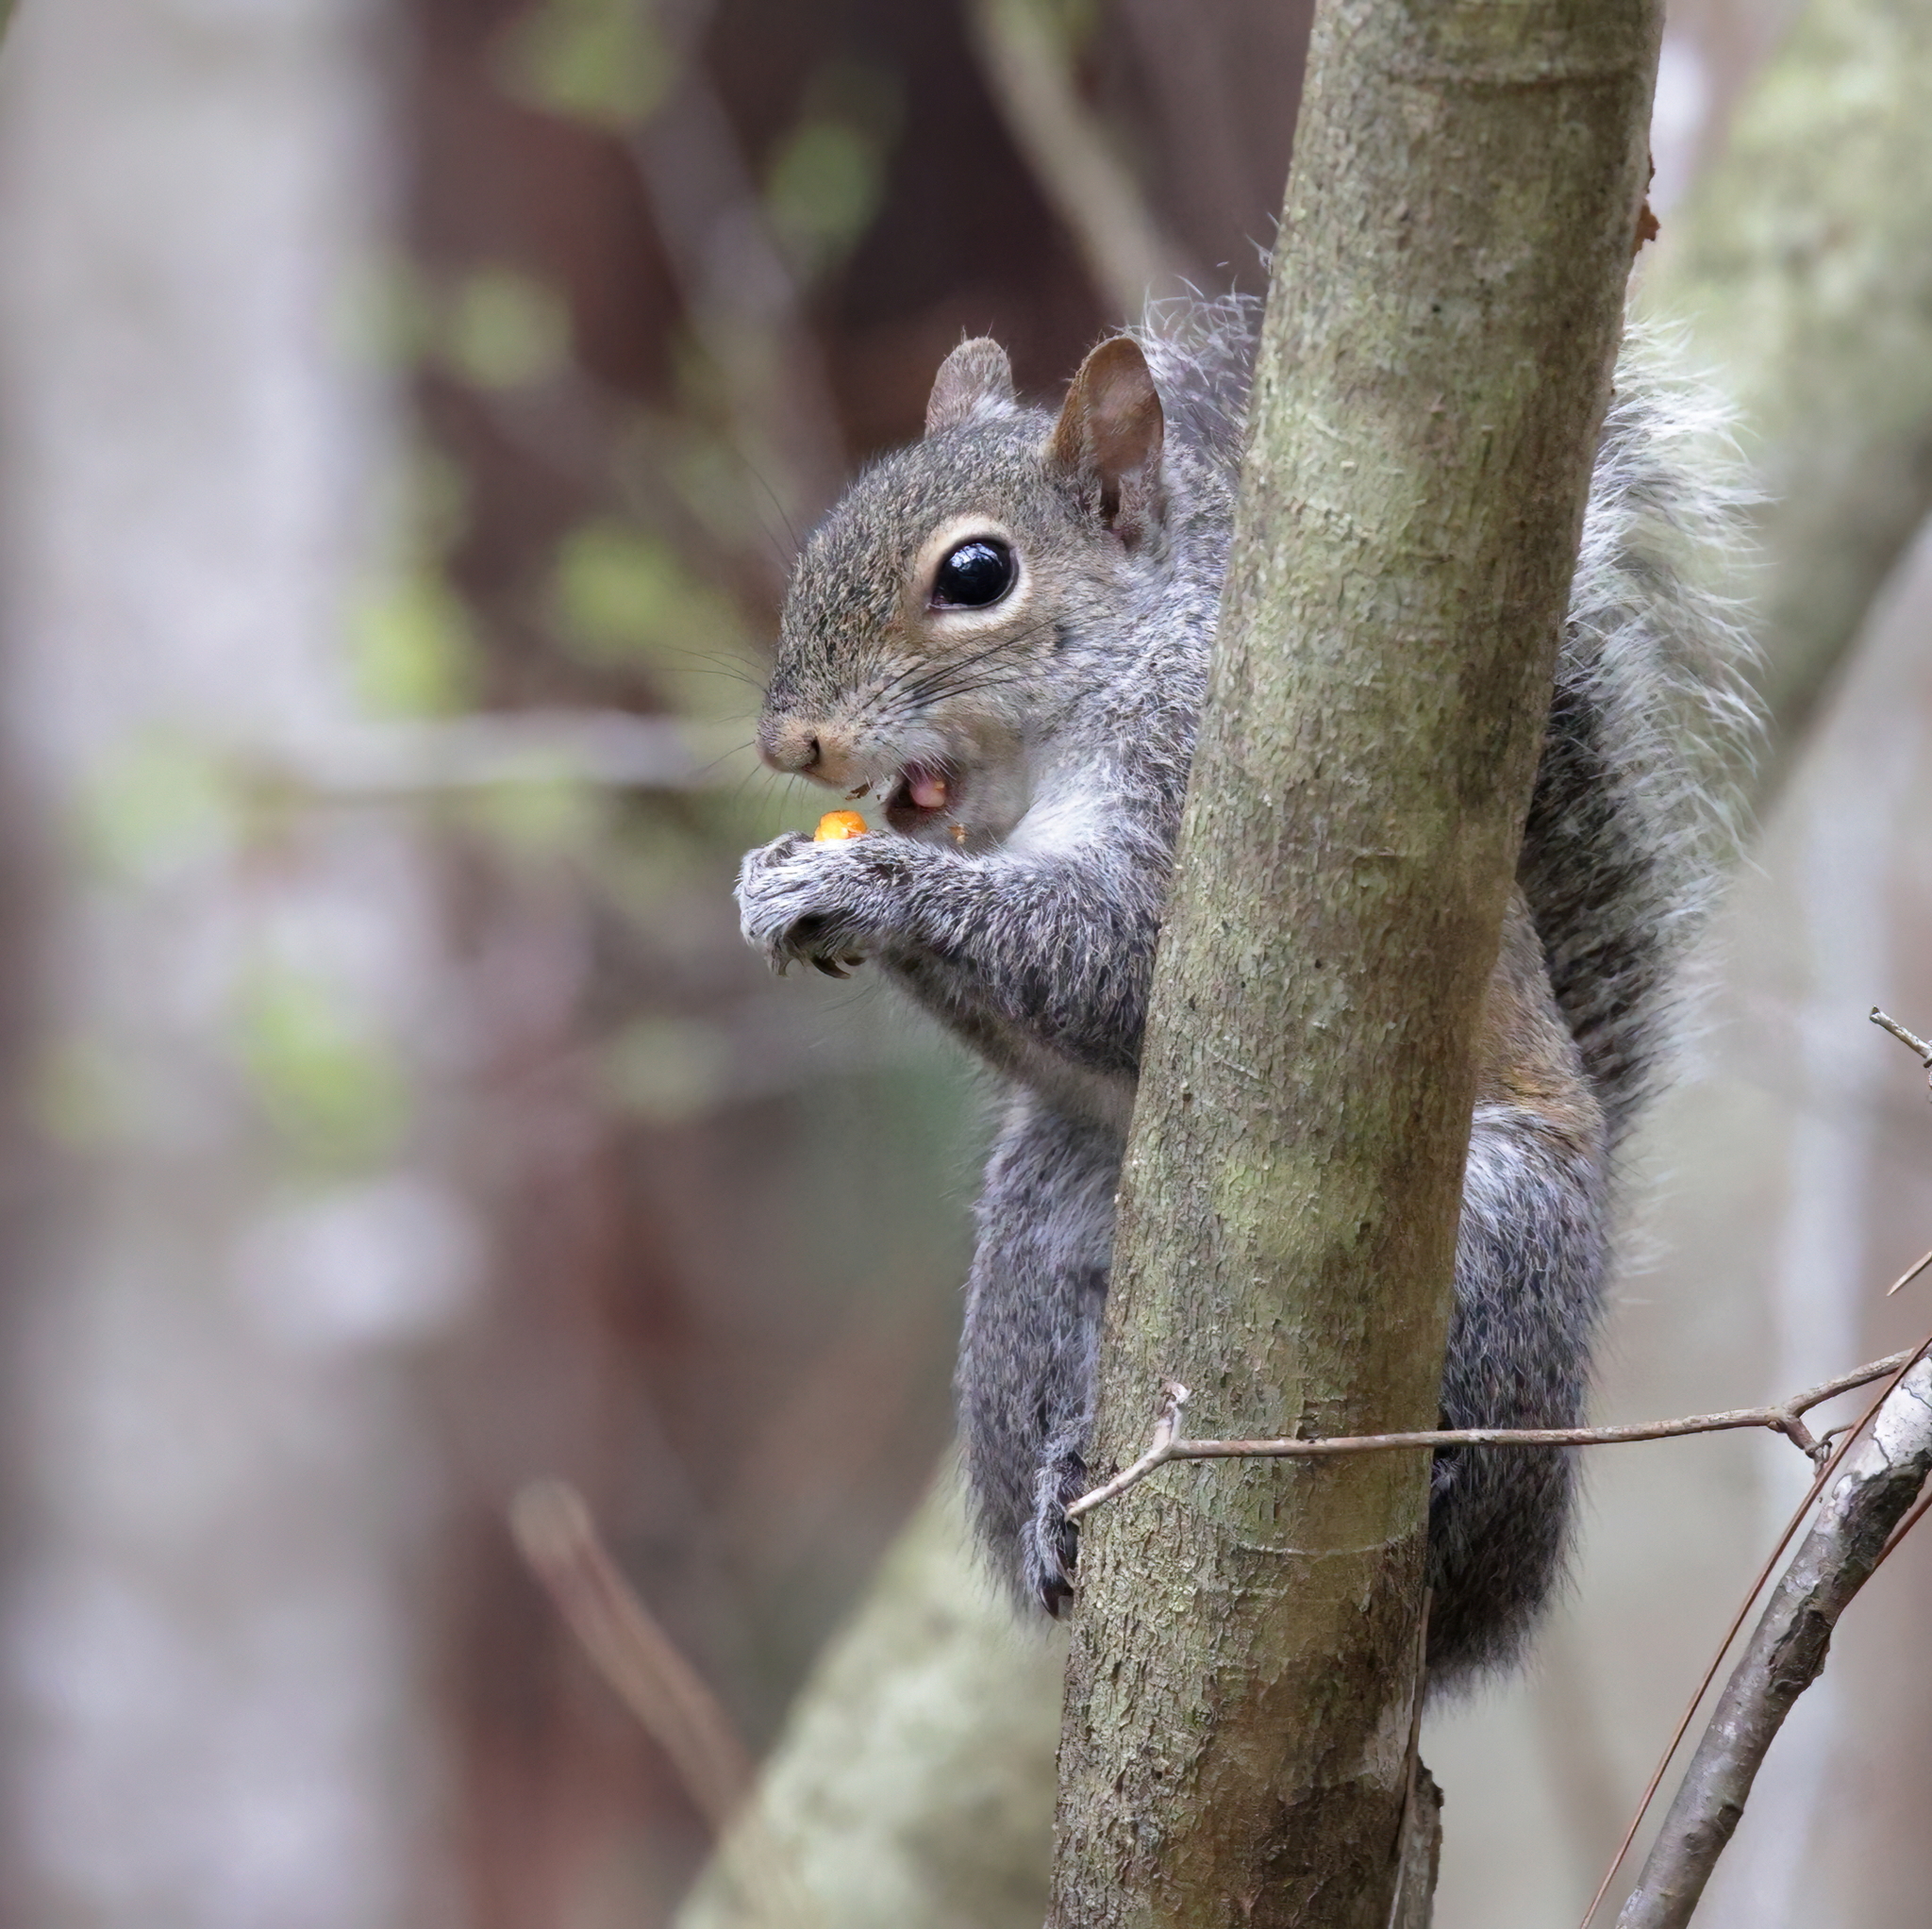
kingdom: Animalia
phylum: Chordata
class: Mammalia
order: Rodentia
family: Sciuridae
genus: Sciurus
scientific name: Sciurus carolinensis
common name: Eastern gray squirrel
